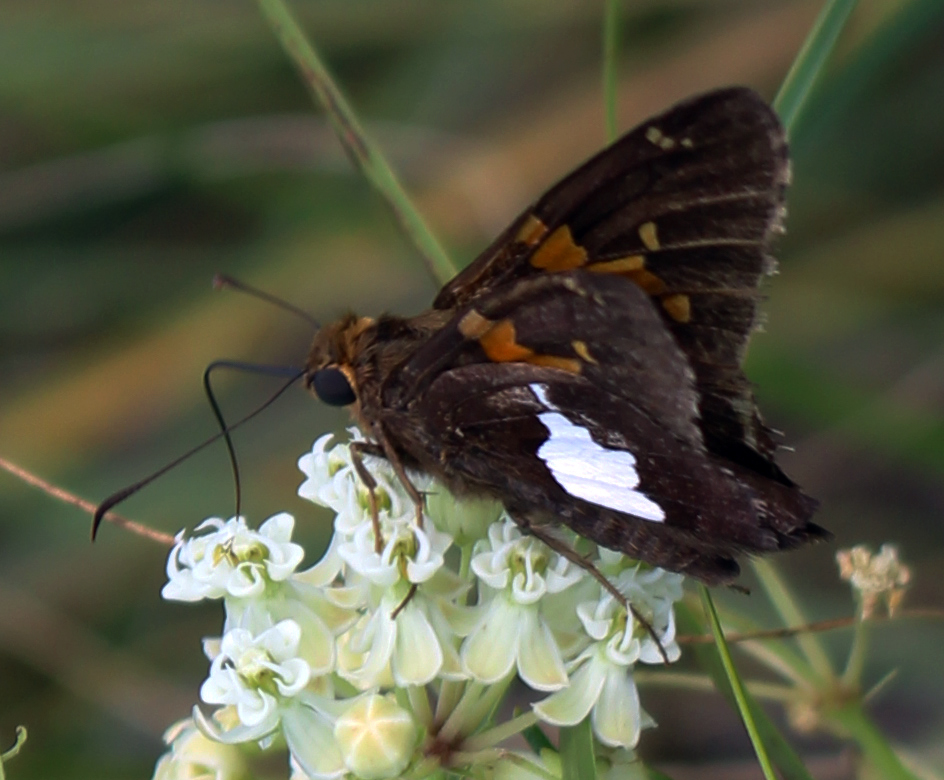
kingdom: Animalia
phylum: Arthropoda
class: Insecta
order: Lepidoptera
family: Hesperiidae
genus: Epargyreus
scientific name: Epargyreus clarus
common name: Silver-spotted skipper
